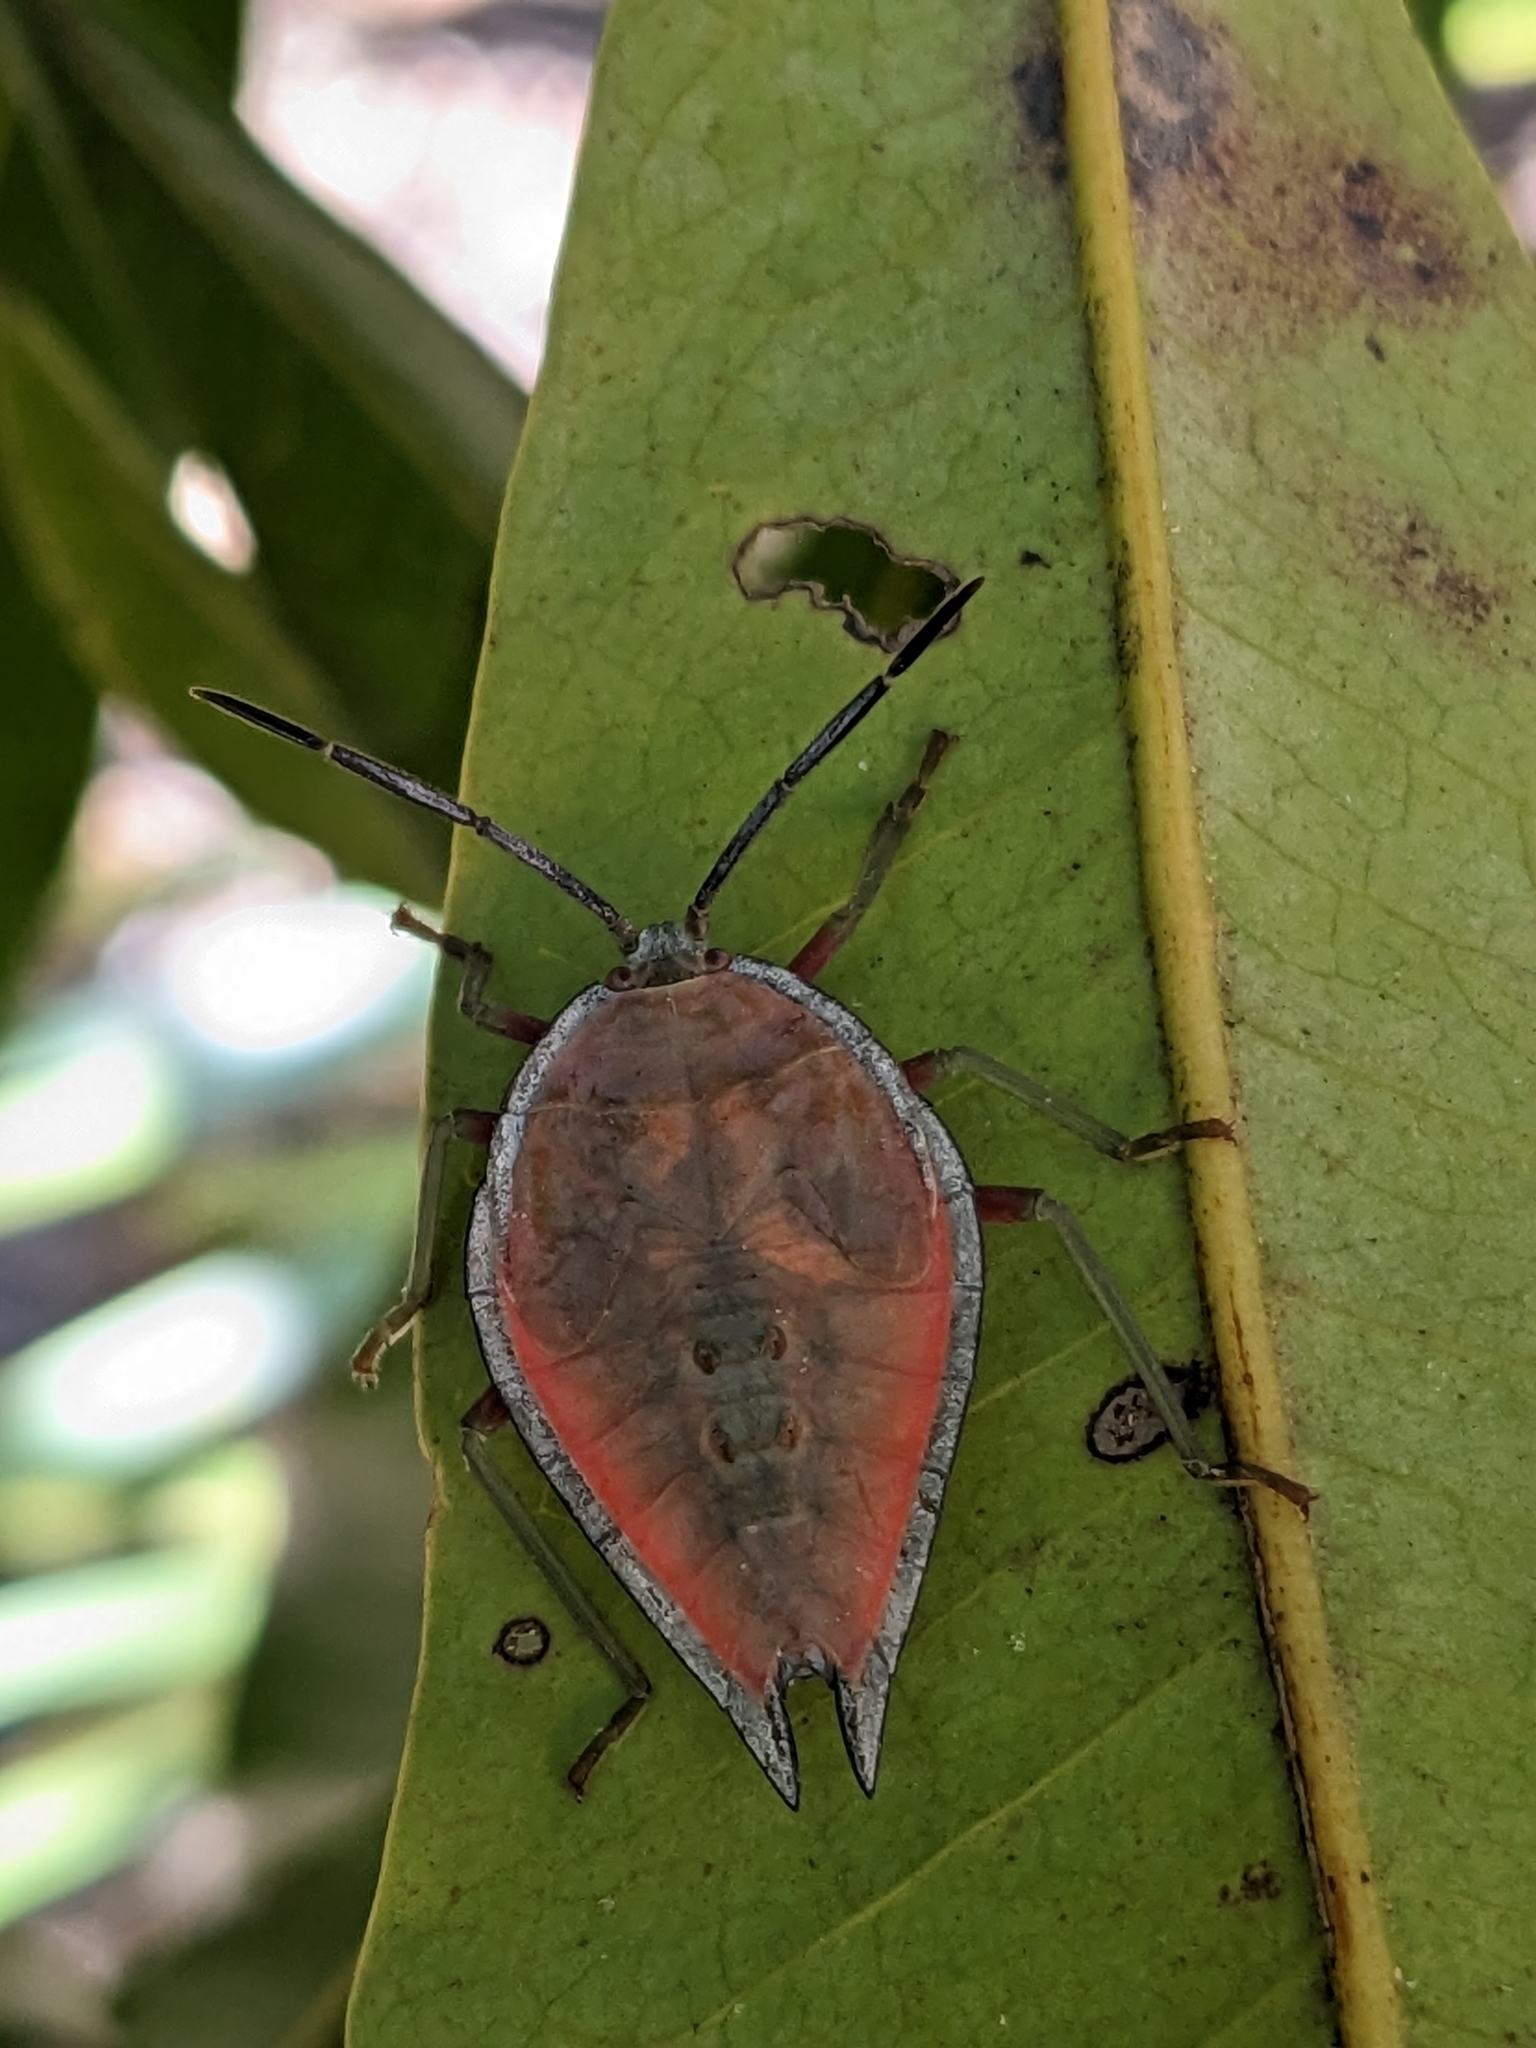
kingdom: Animalia
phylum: Arthropoda
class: Insecta
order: Hemiptera
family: Tessaratomidae
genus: Lyramorpha
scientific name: Lyramorpha rosea
